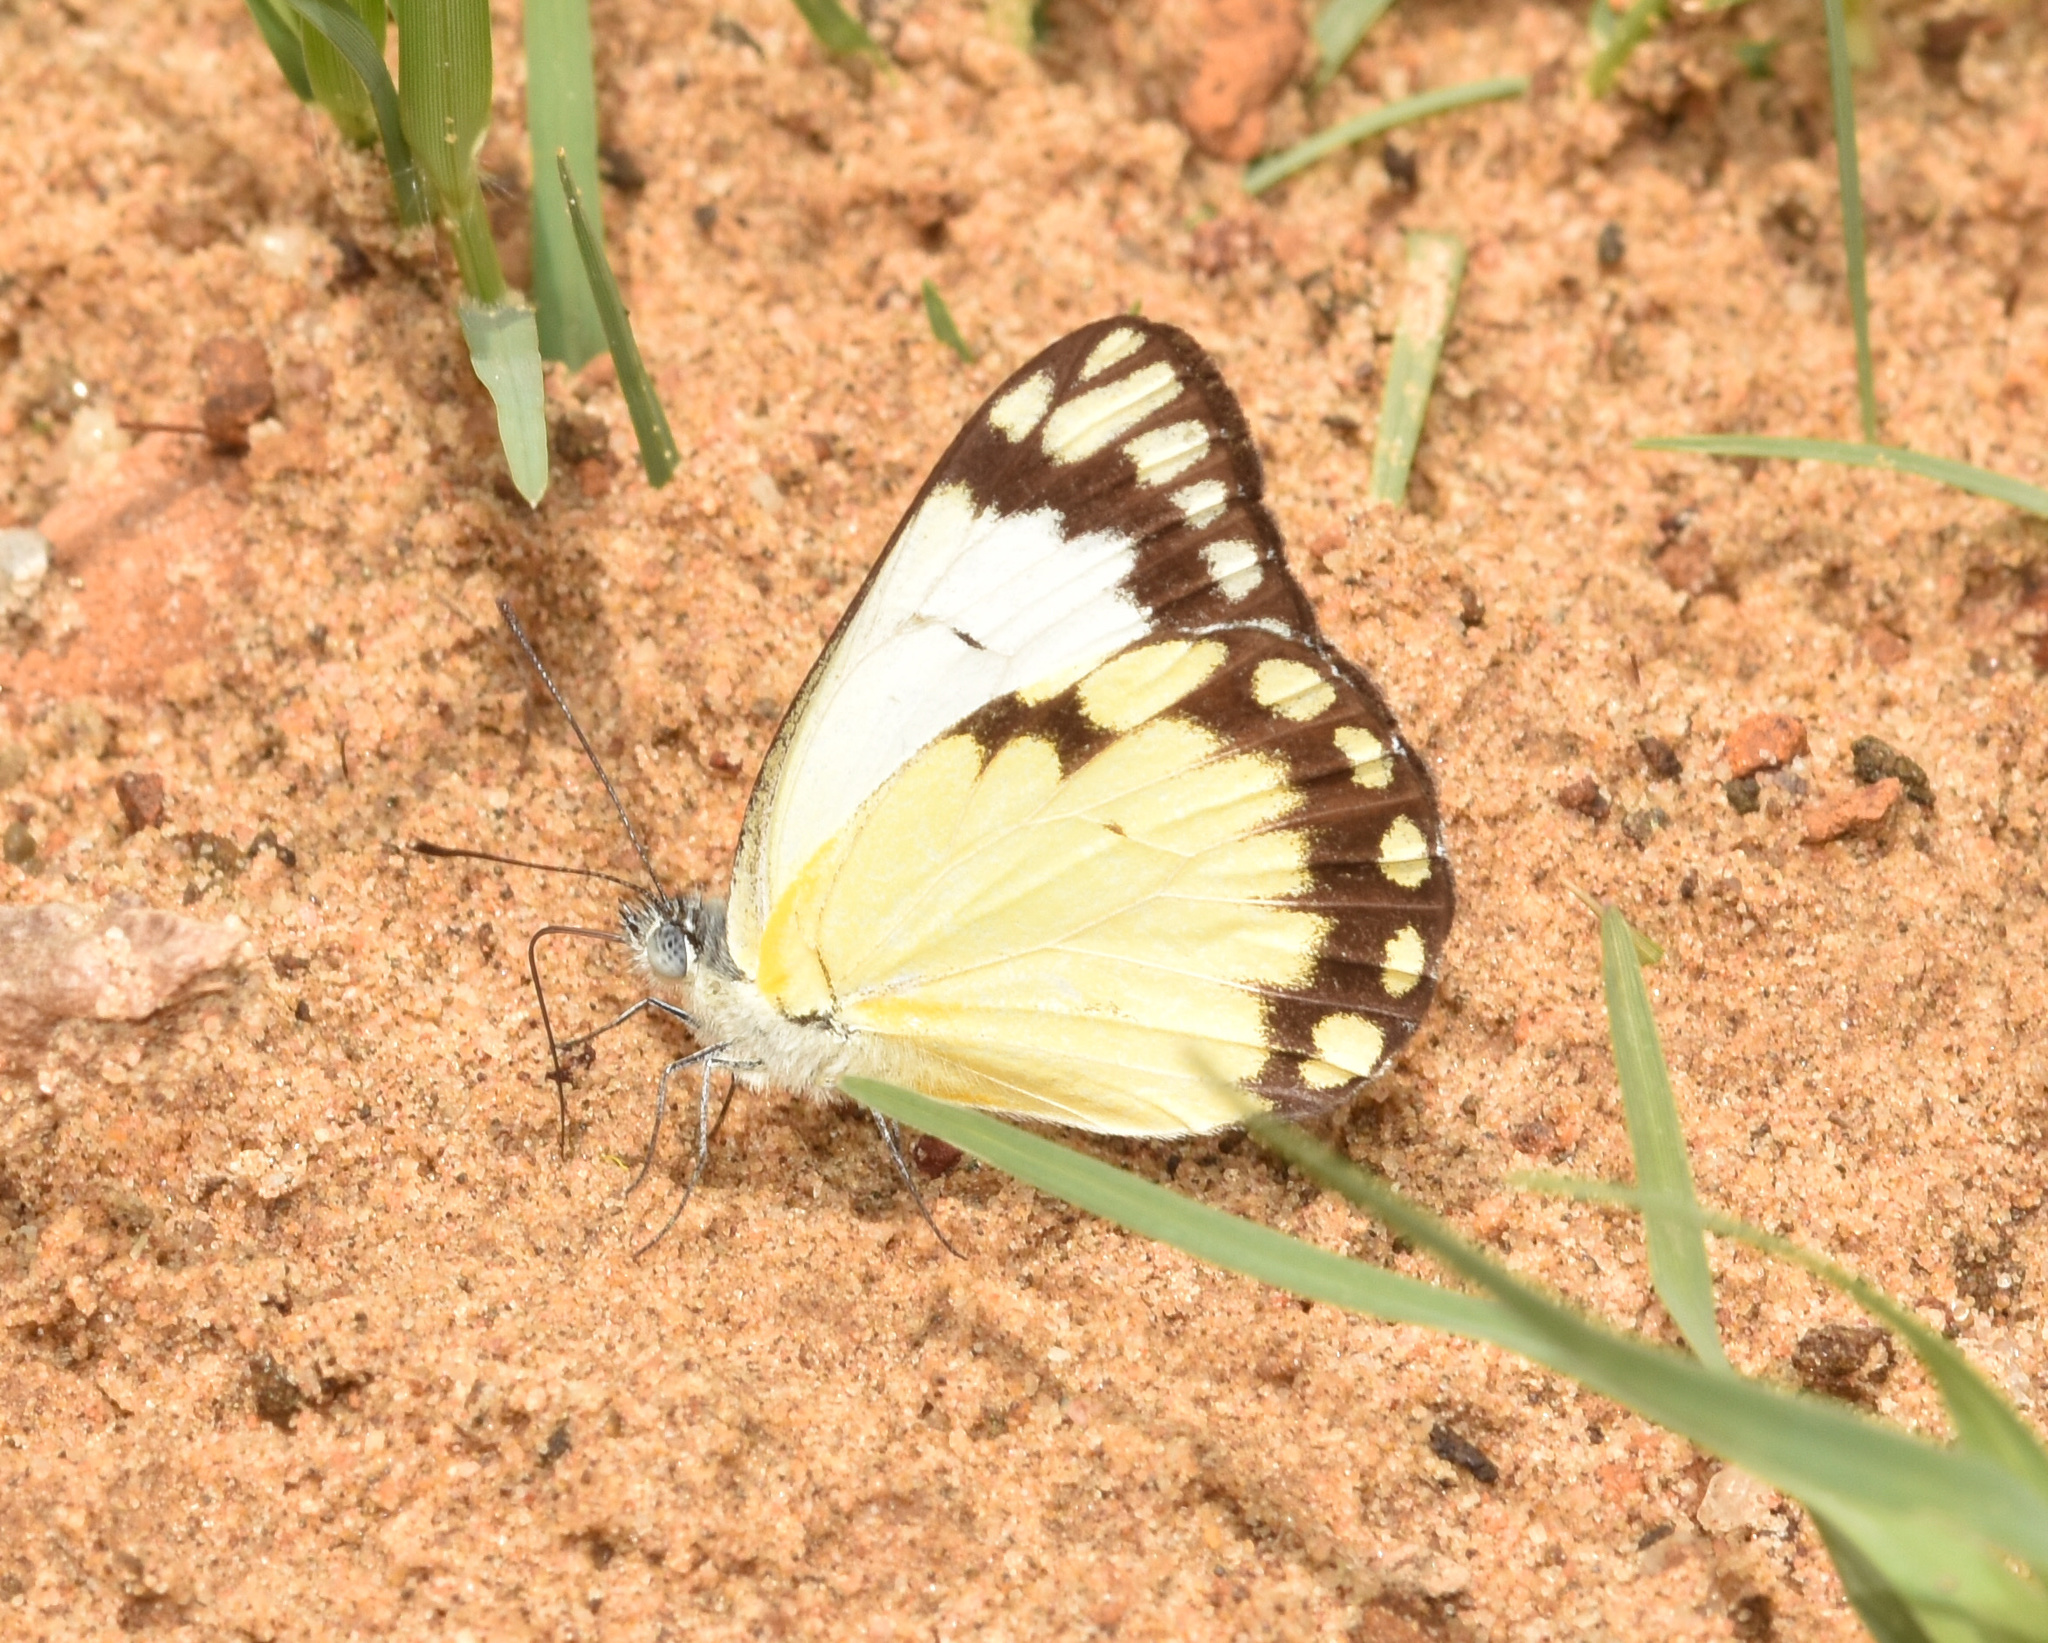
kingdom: Animalia
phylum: Arthropoda
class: Insecta
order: Lepidoptera
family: Pieridae
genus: Belenois
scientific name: Belenois creona
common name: African caper white
